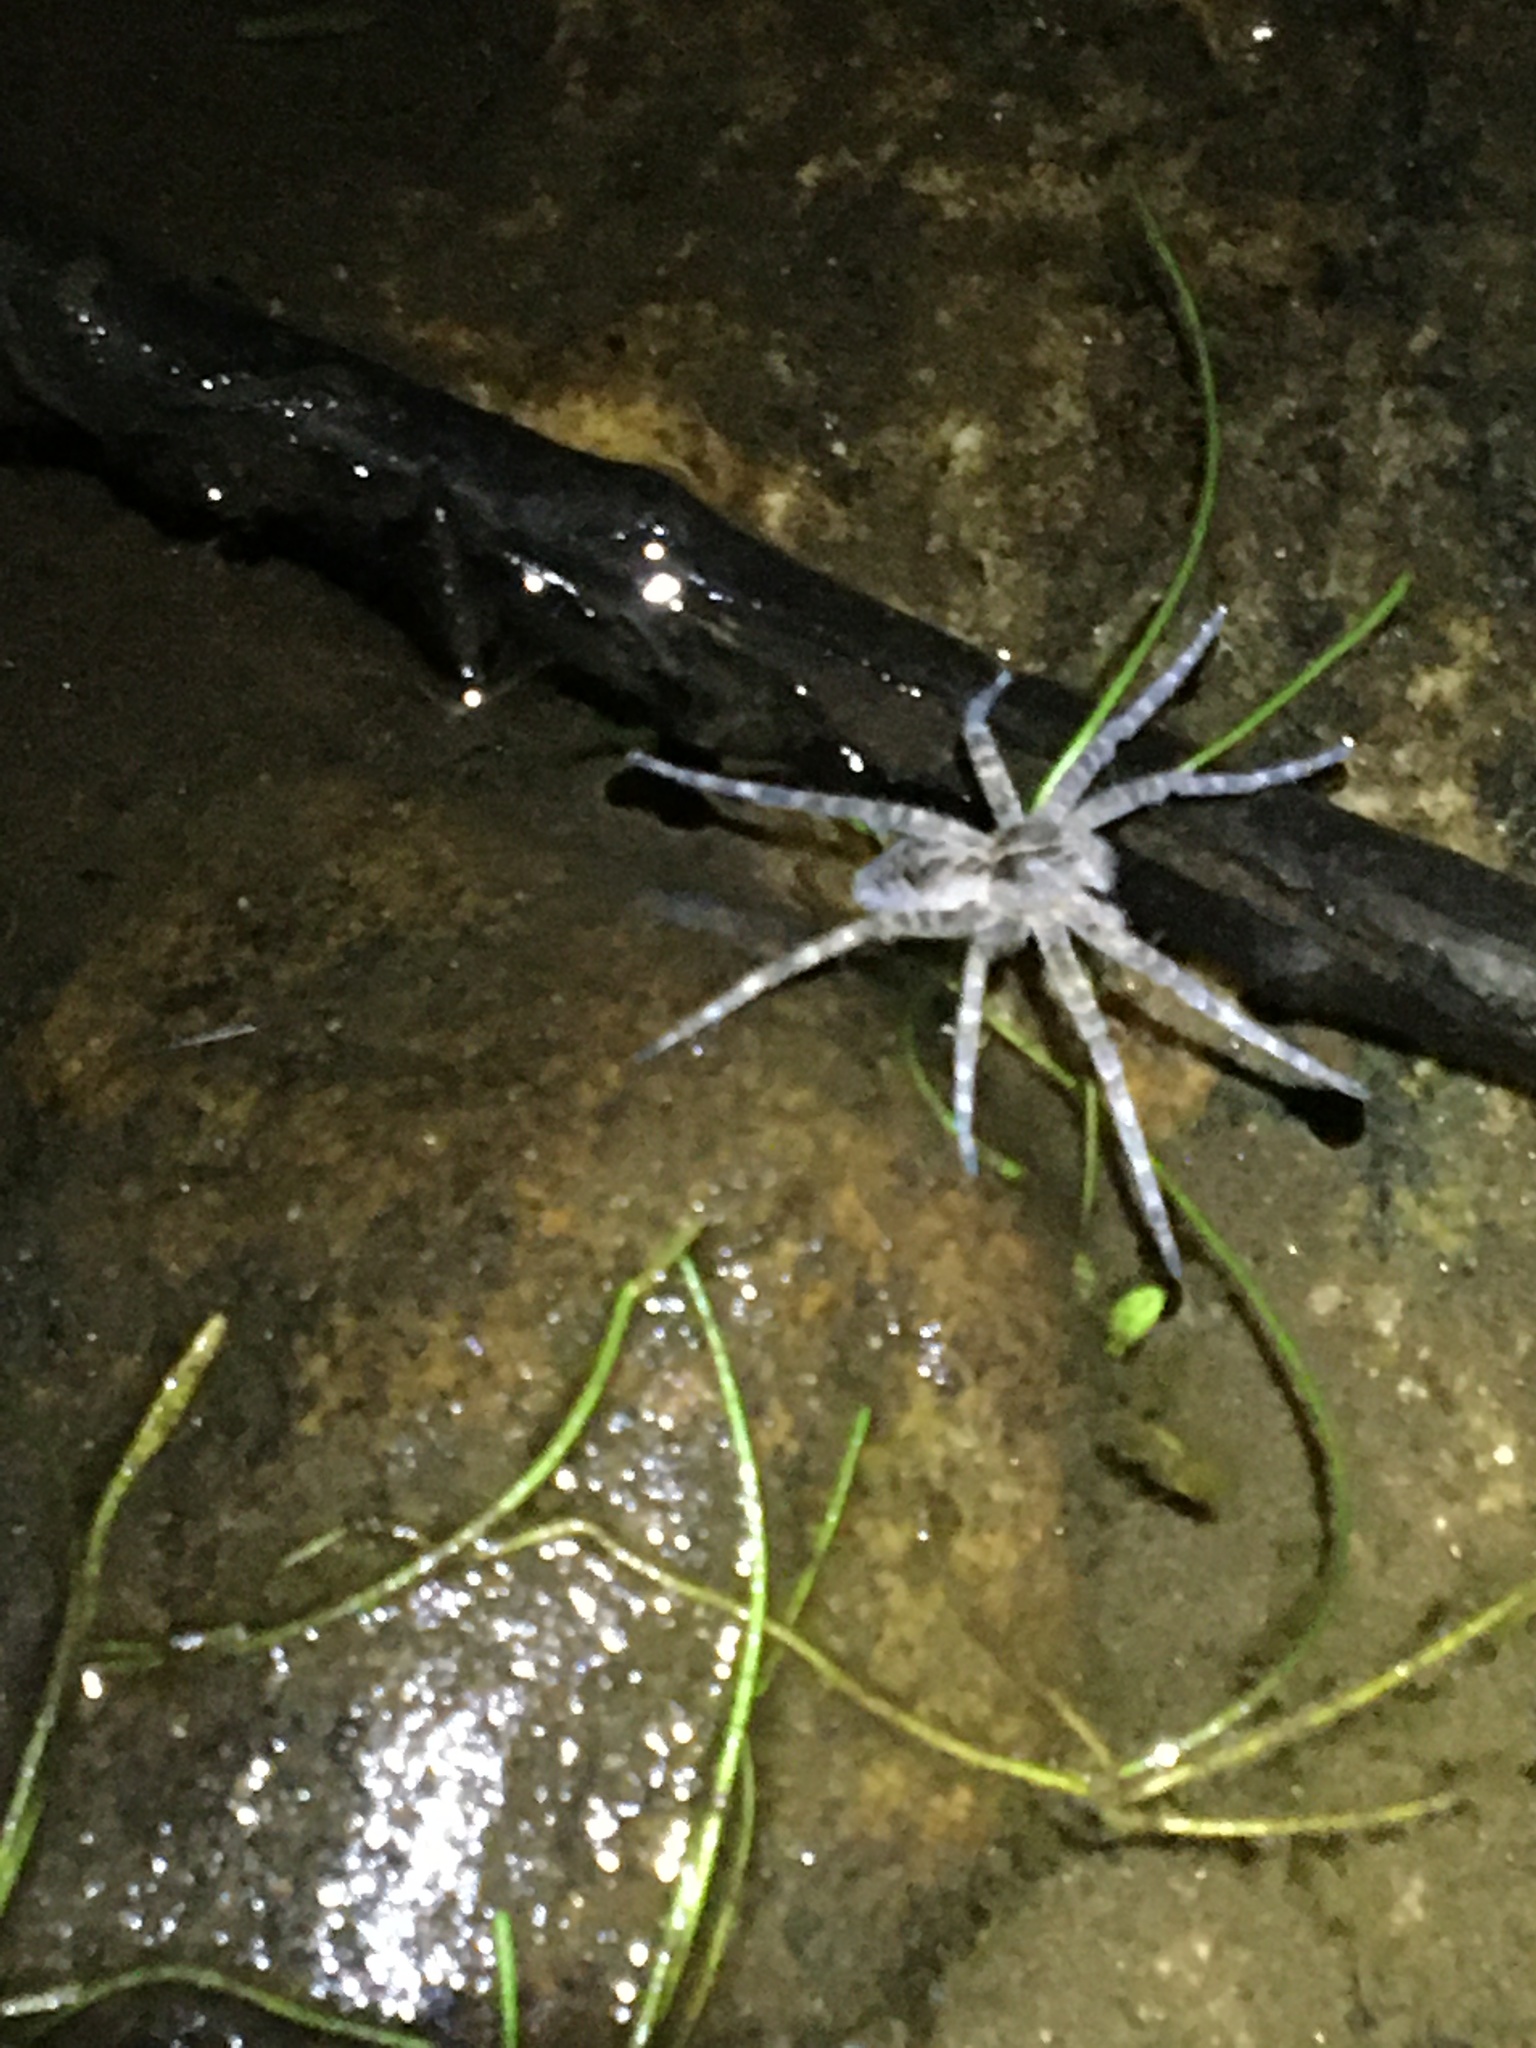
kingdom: Animalia
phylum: Arthropoda
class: Arachnida
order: Araneae
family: Pisauridae
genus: Dolomedes
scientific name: Dolomedes scriptus
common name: Striped fishing spider
